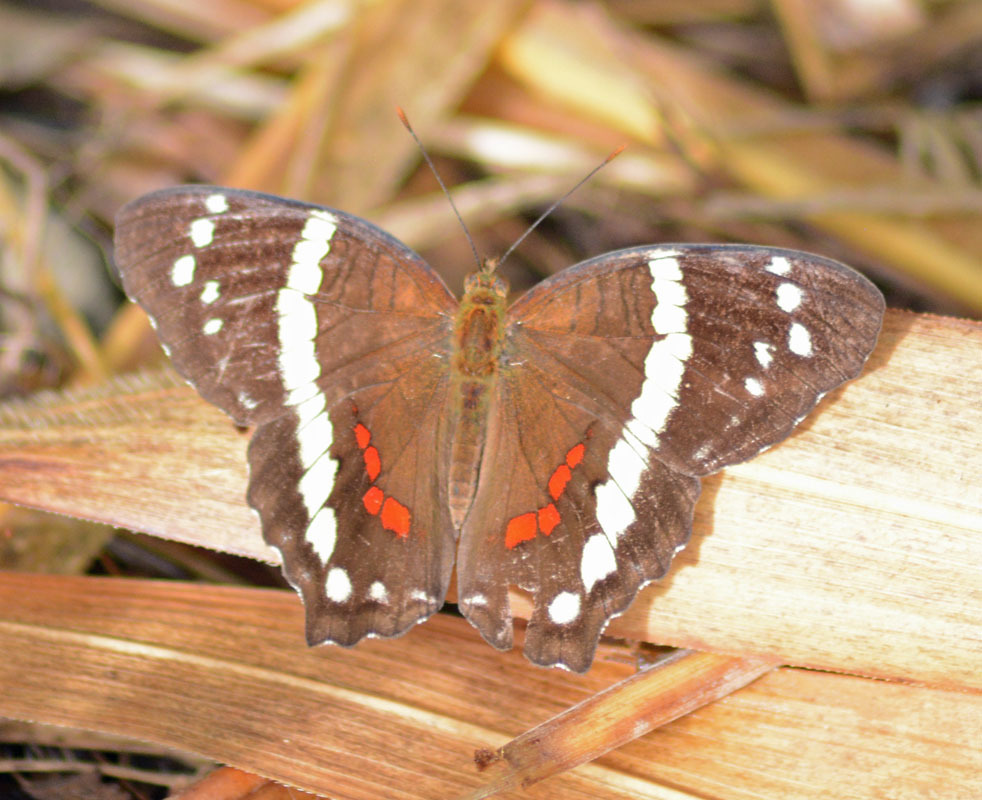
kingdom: Animalia
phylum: Arthropoda
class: Insecta
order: Lepidoptera
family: Nymphalidae
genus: Anartia
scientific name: Anartia fatima
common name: Banded peacock
